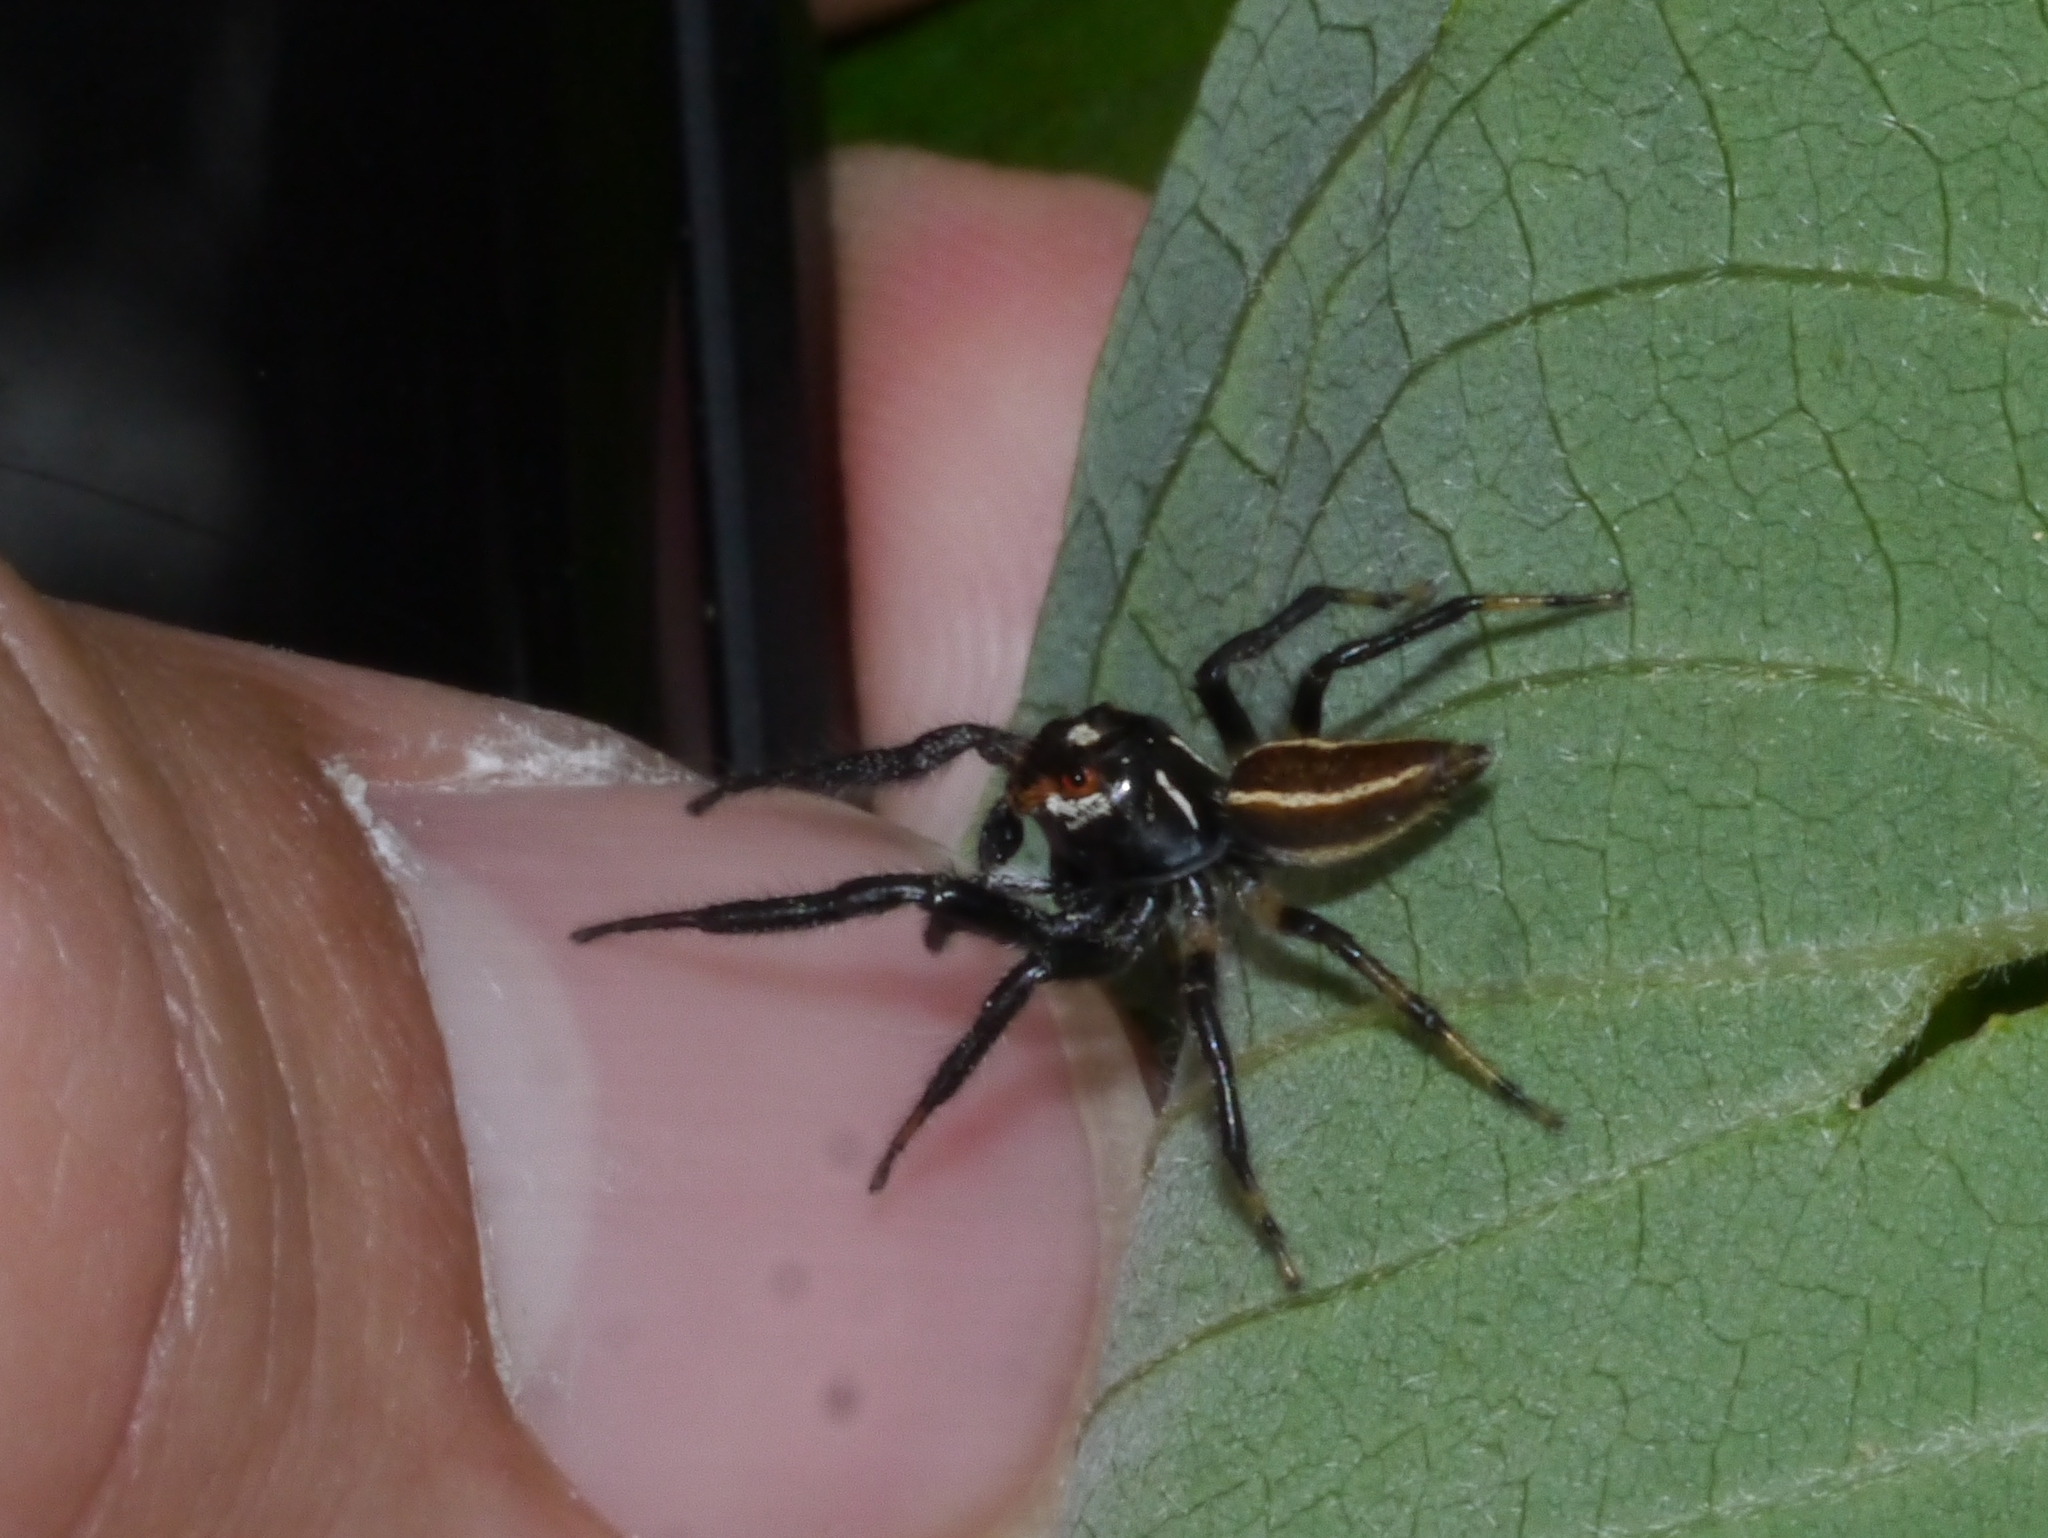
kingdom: Animalia
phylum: Arthropoda
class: Arachnida
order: Araneae
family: Salticidae
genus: Colonus
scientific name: Colonus sylvanus
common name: Jumping spiders
